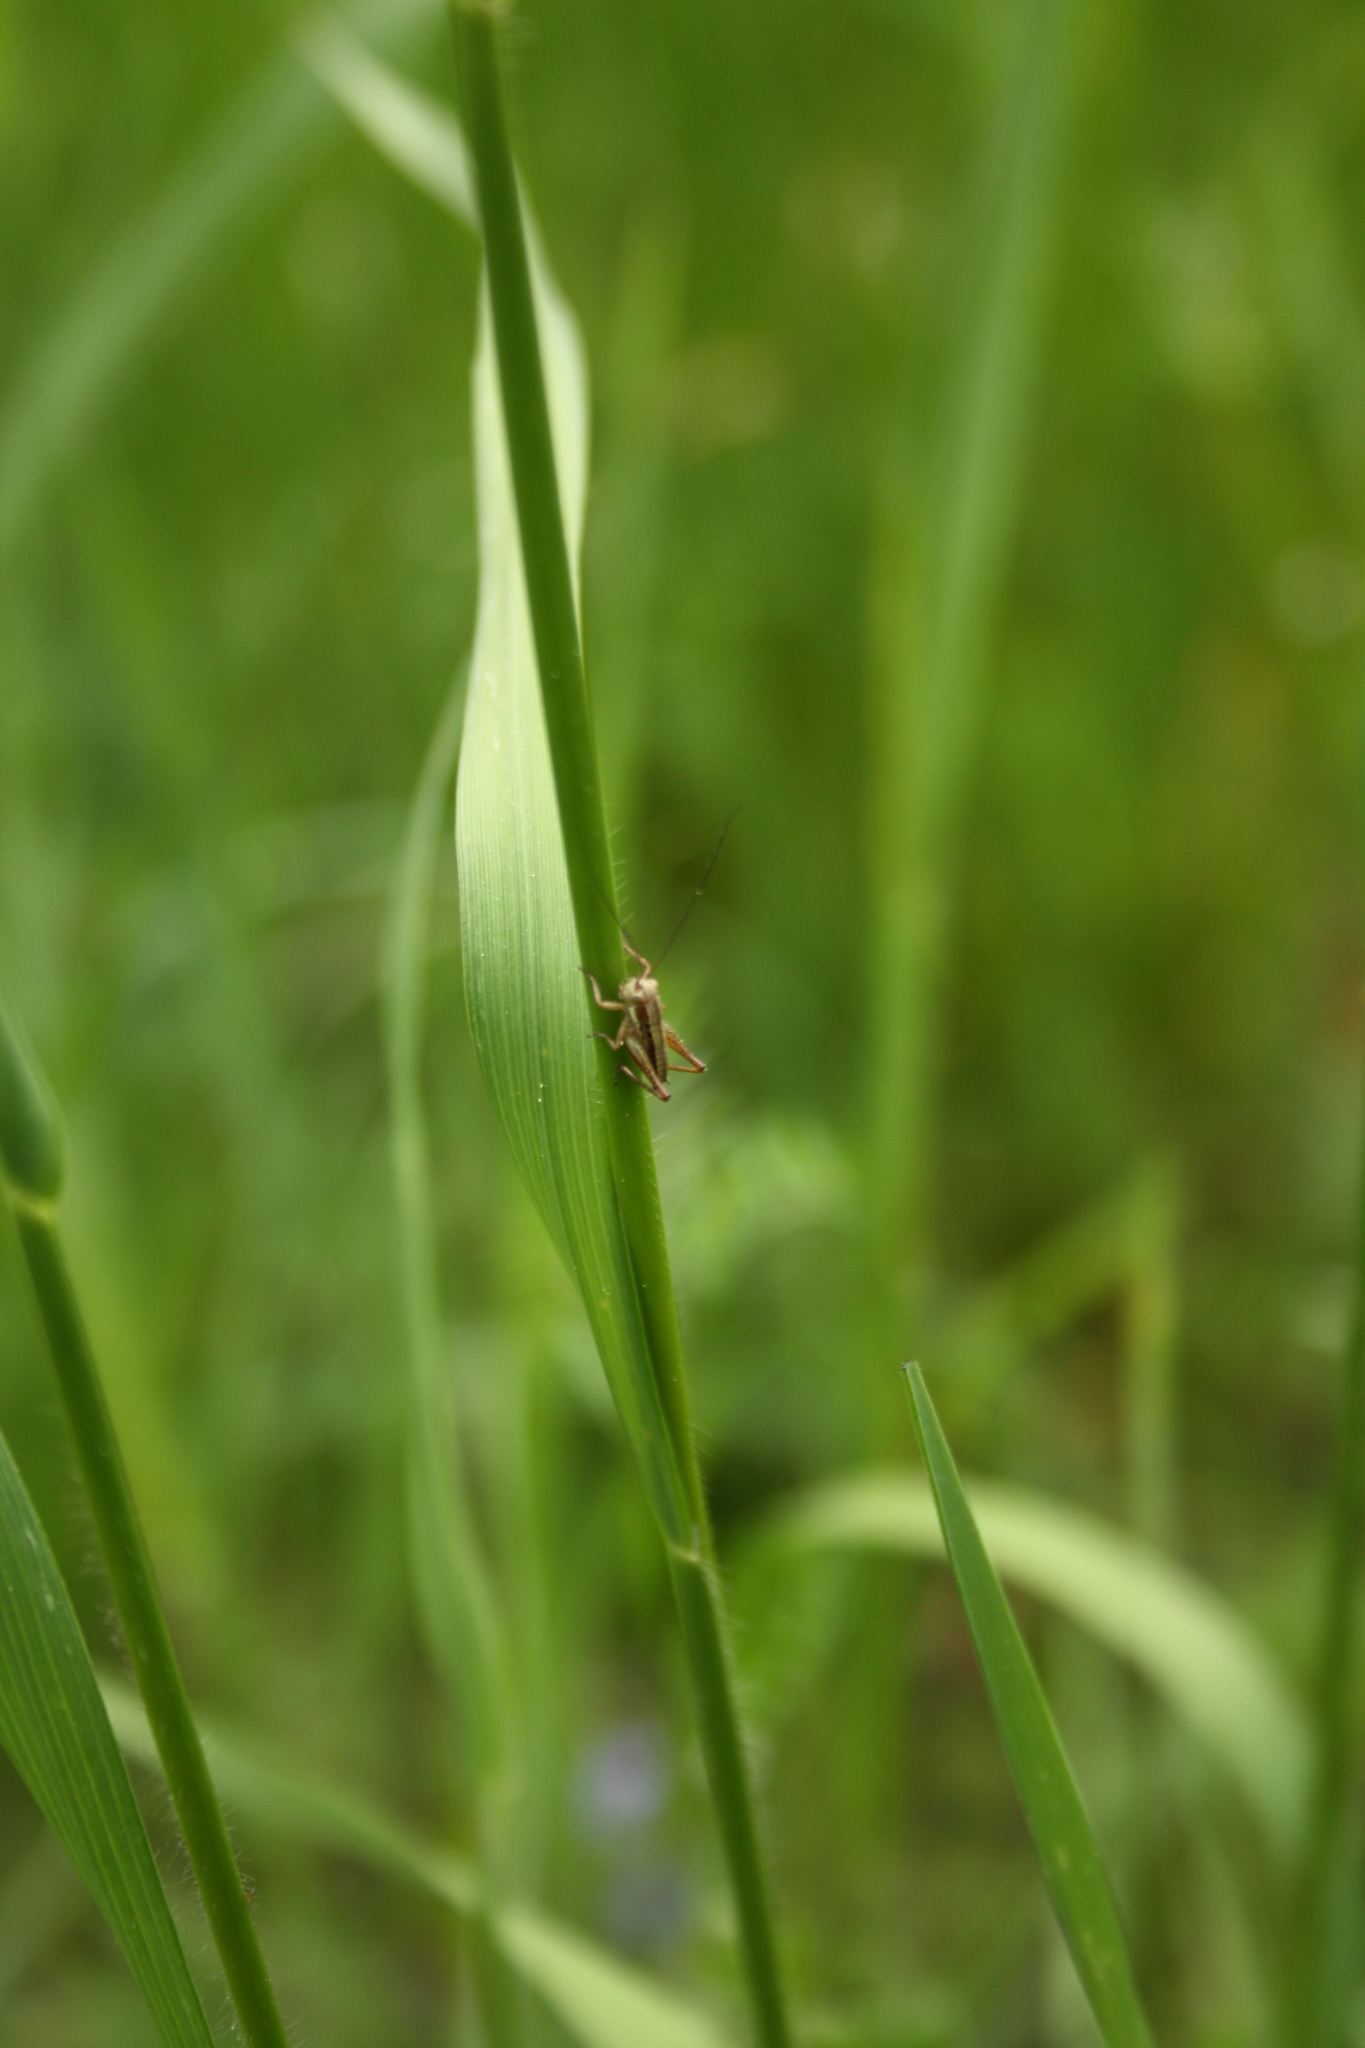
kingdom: Animalia
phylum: Arthropoda
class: Insecta
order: Orthoptera
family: Tettigoniidae
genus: Roeseliana
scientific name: Roeseliana roeselii
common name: Roesel's bush cricket
